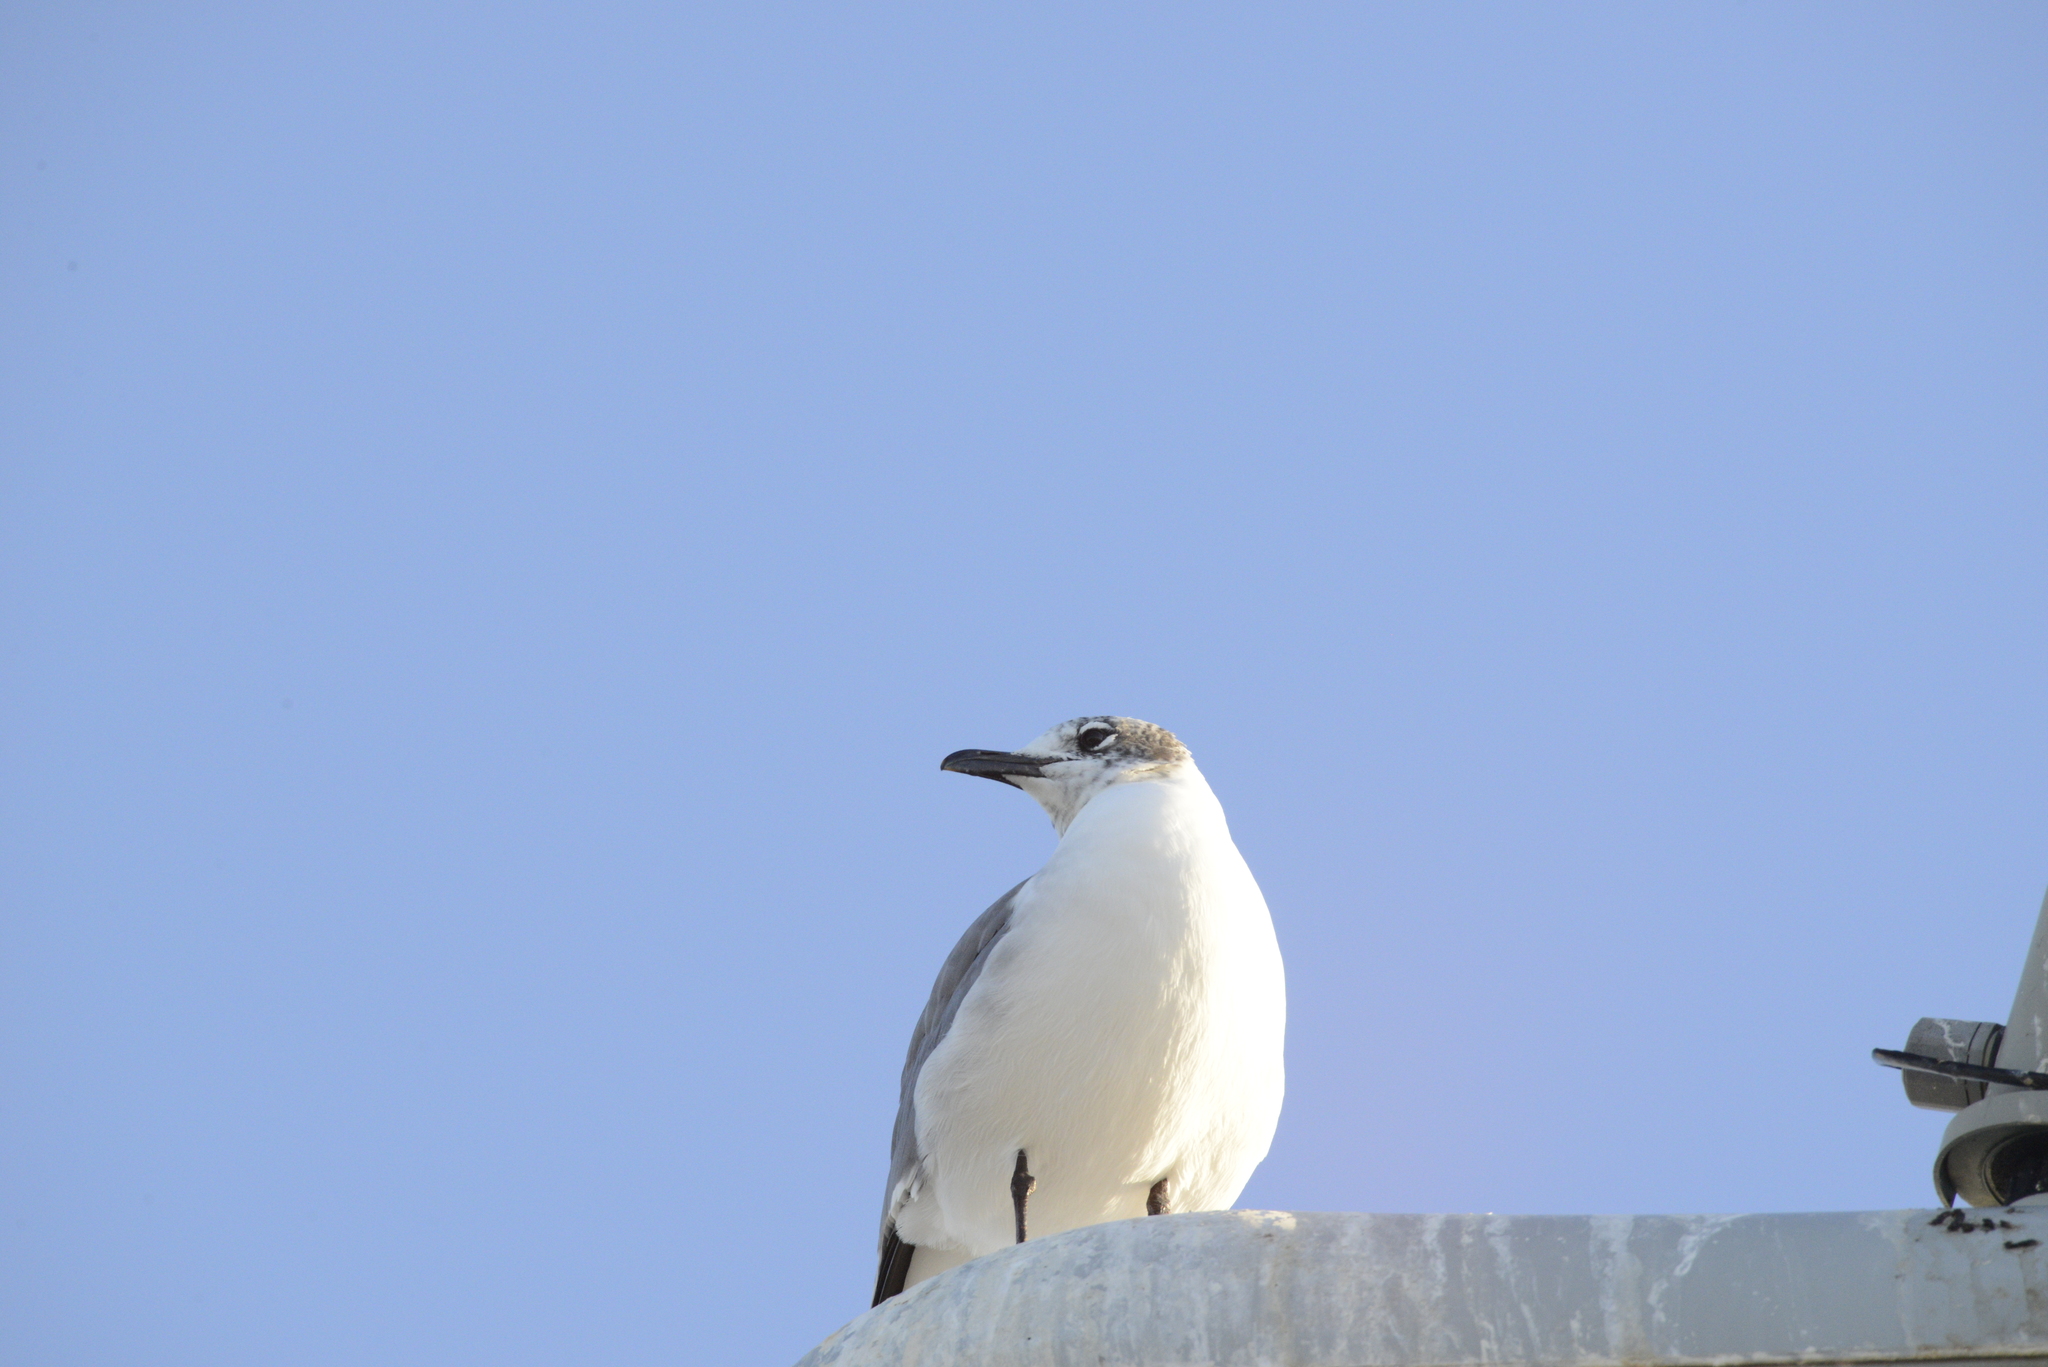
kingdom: Animalia
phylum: Chordata
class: Aves
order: Charadriiformes
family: Laridae
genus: Leucophaeus
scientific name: Leucophaeus atricilla
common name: Laughing gull
